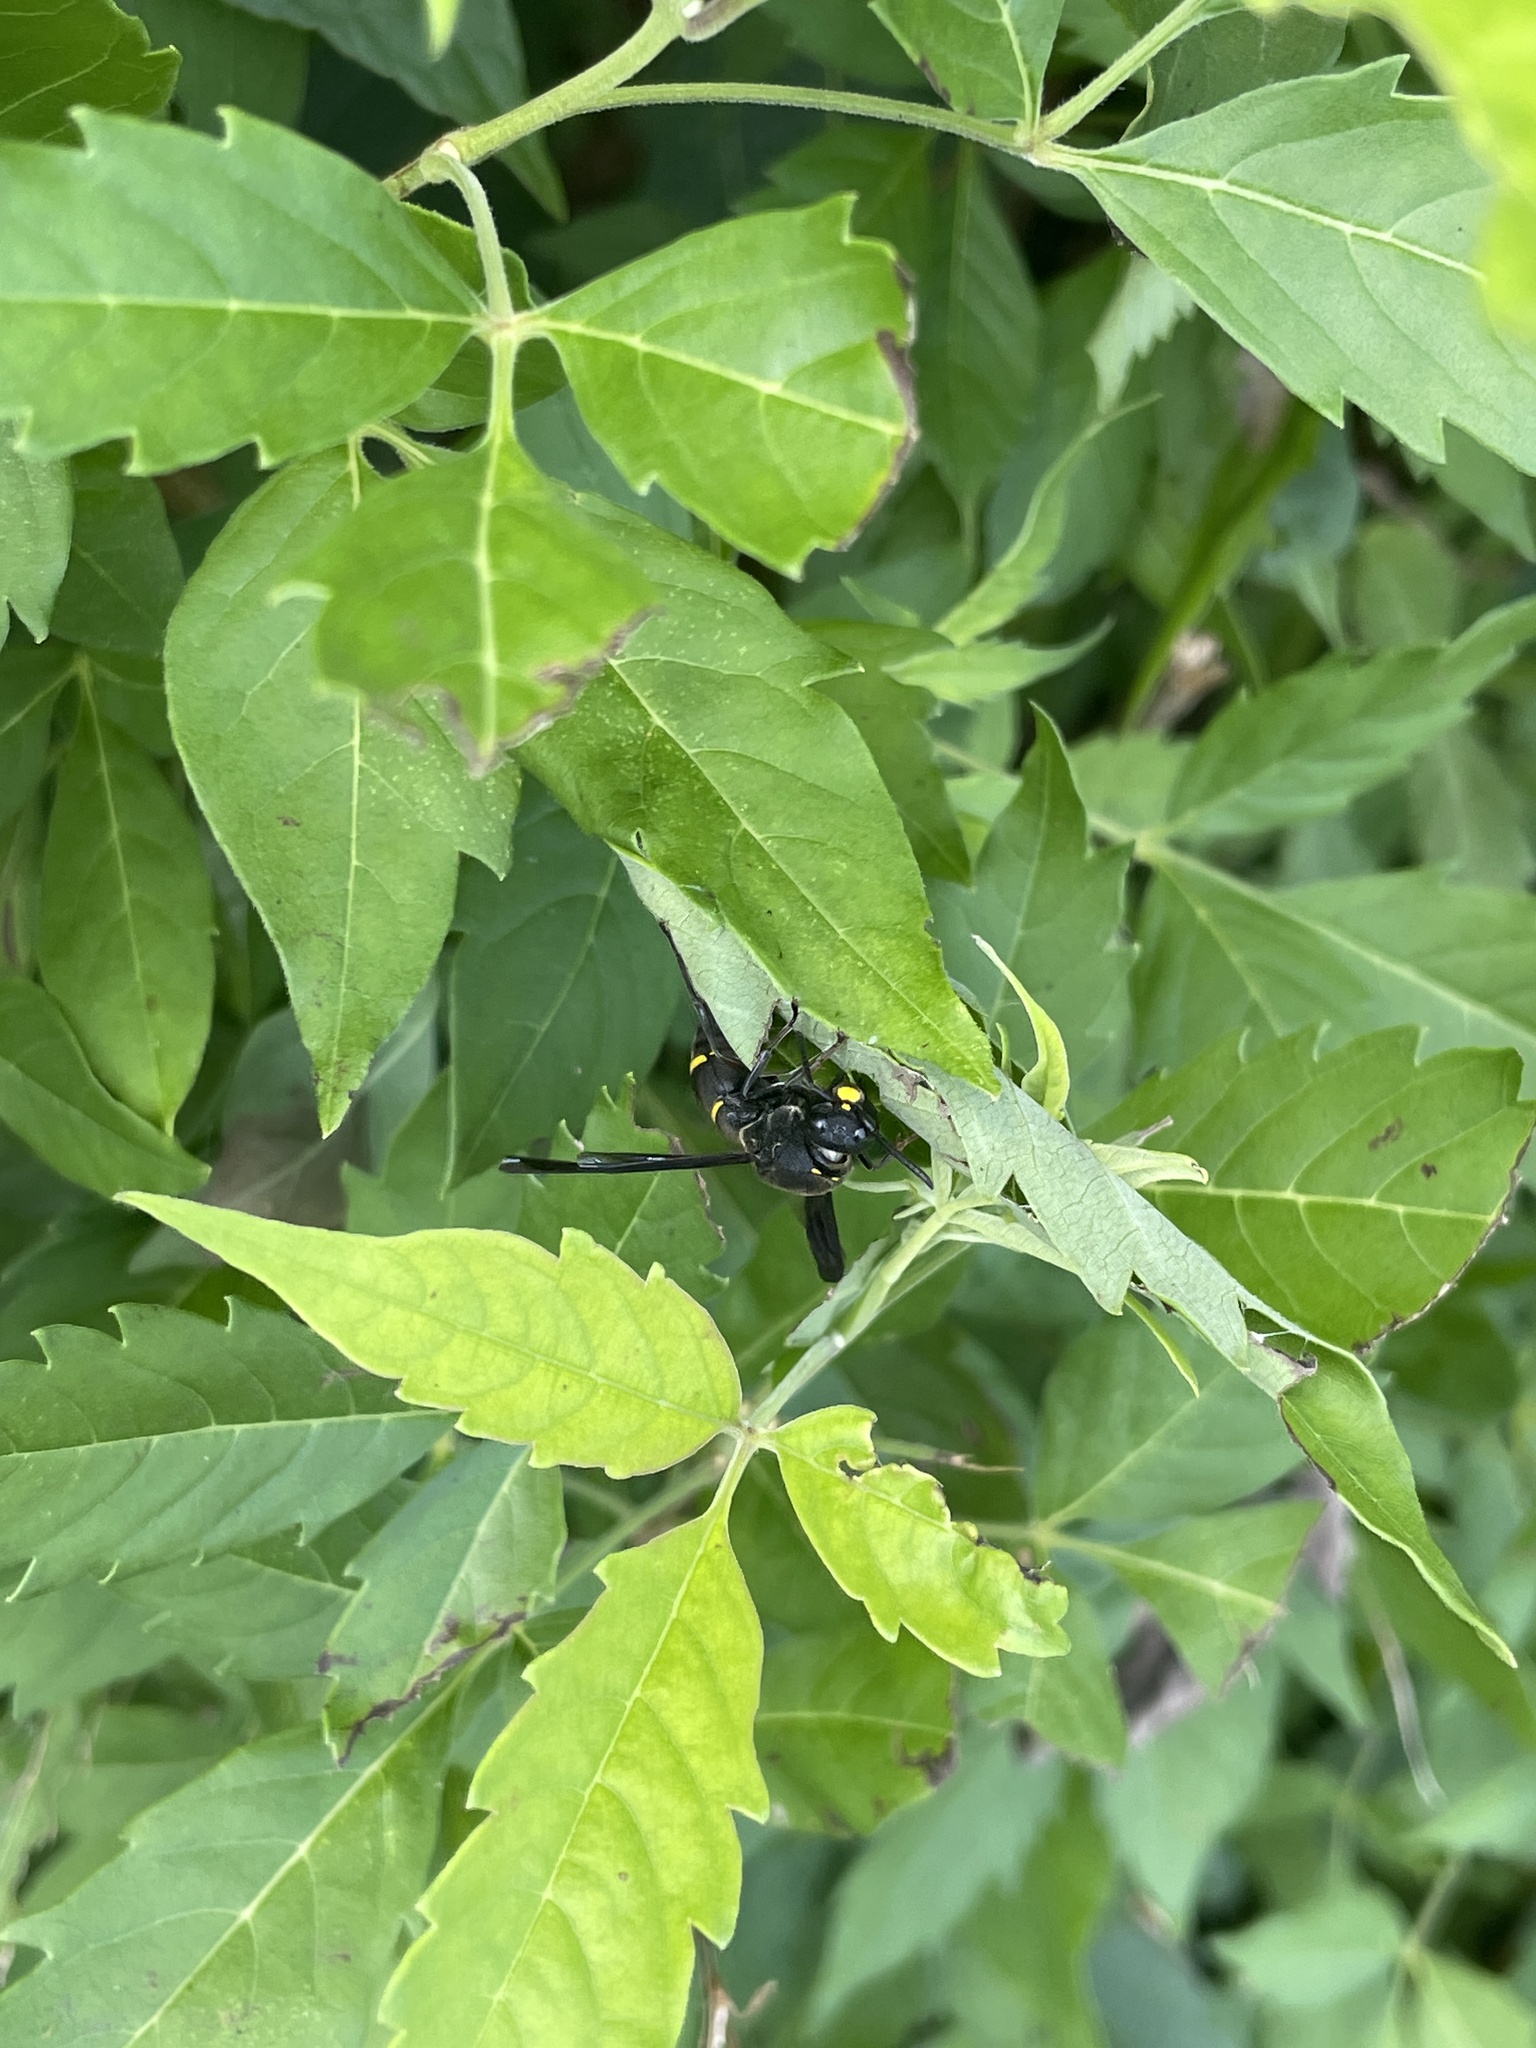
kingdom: Animalia
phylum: Arthropoda
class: Insecta
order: Hymenoptera
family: Eumenidae
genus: Anterhynchium
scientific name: Anterhynchium flavomarginatum
